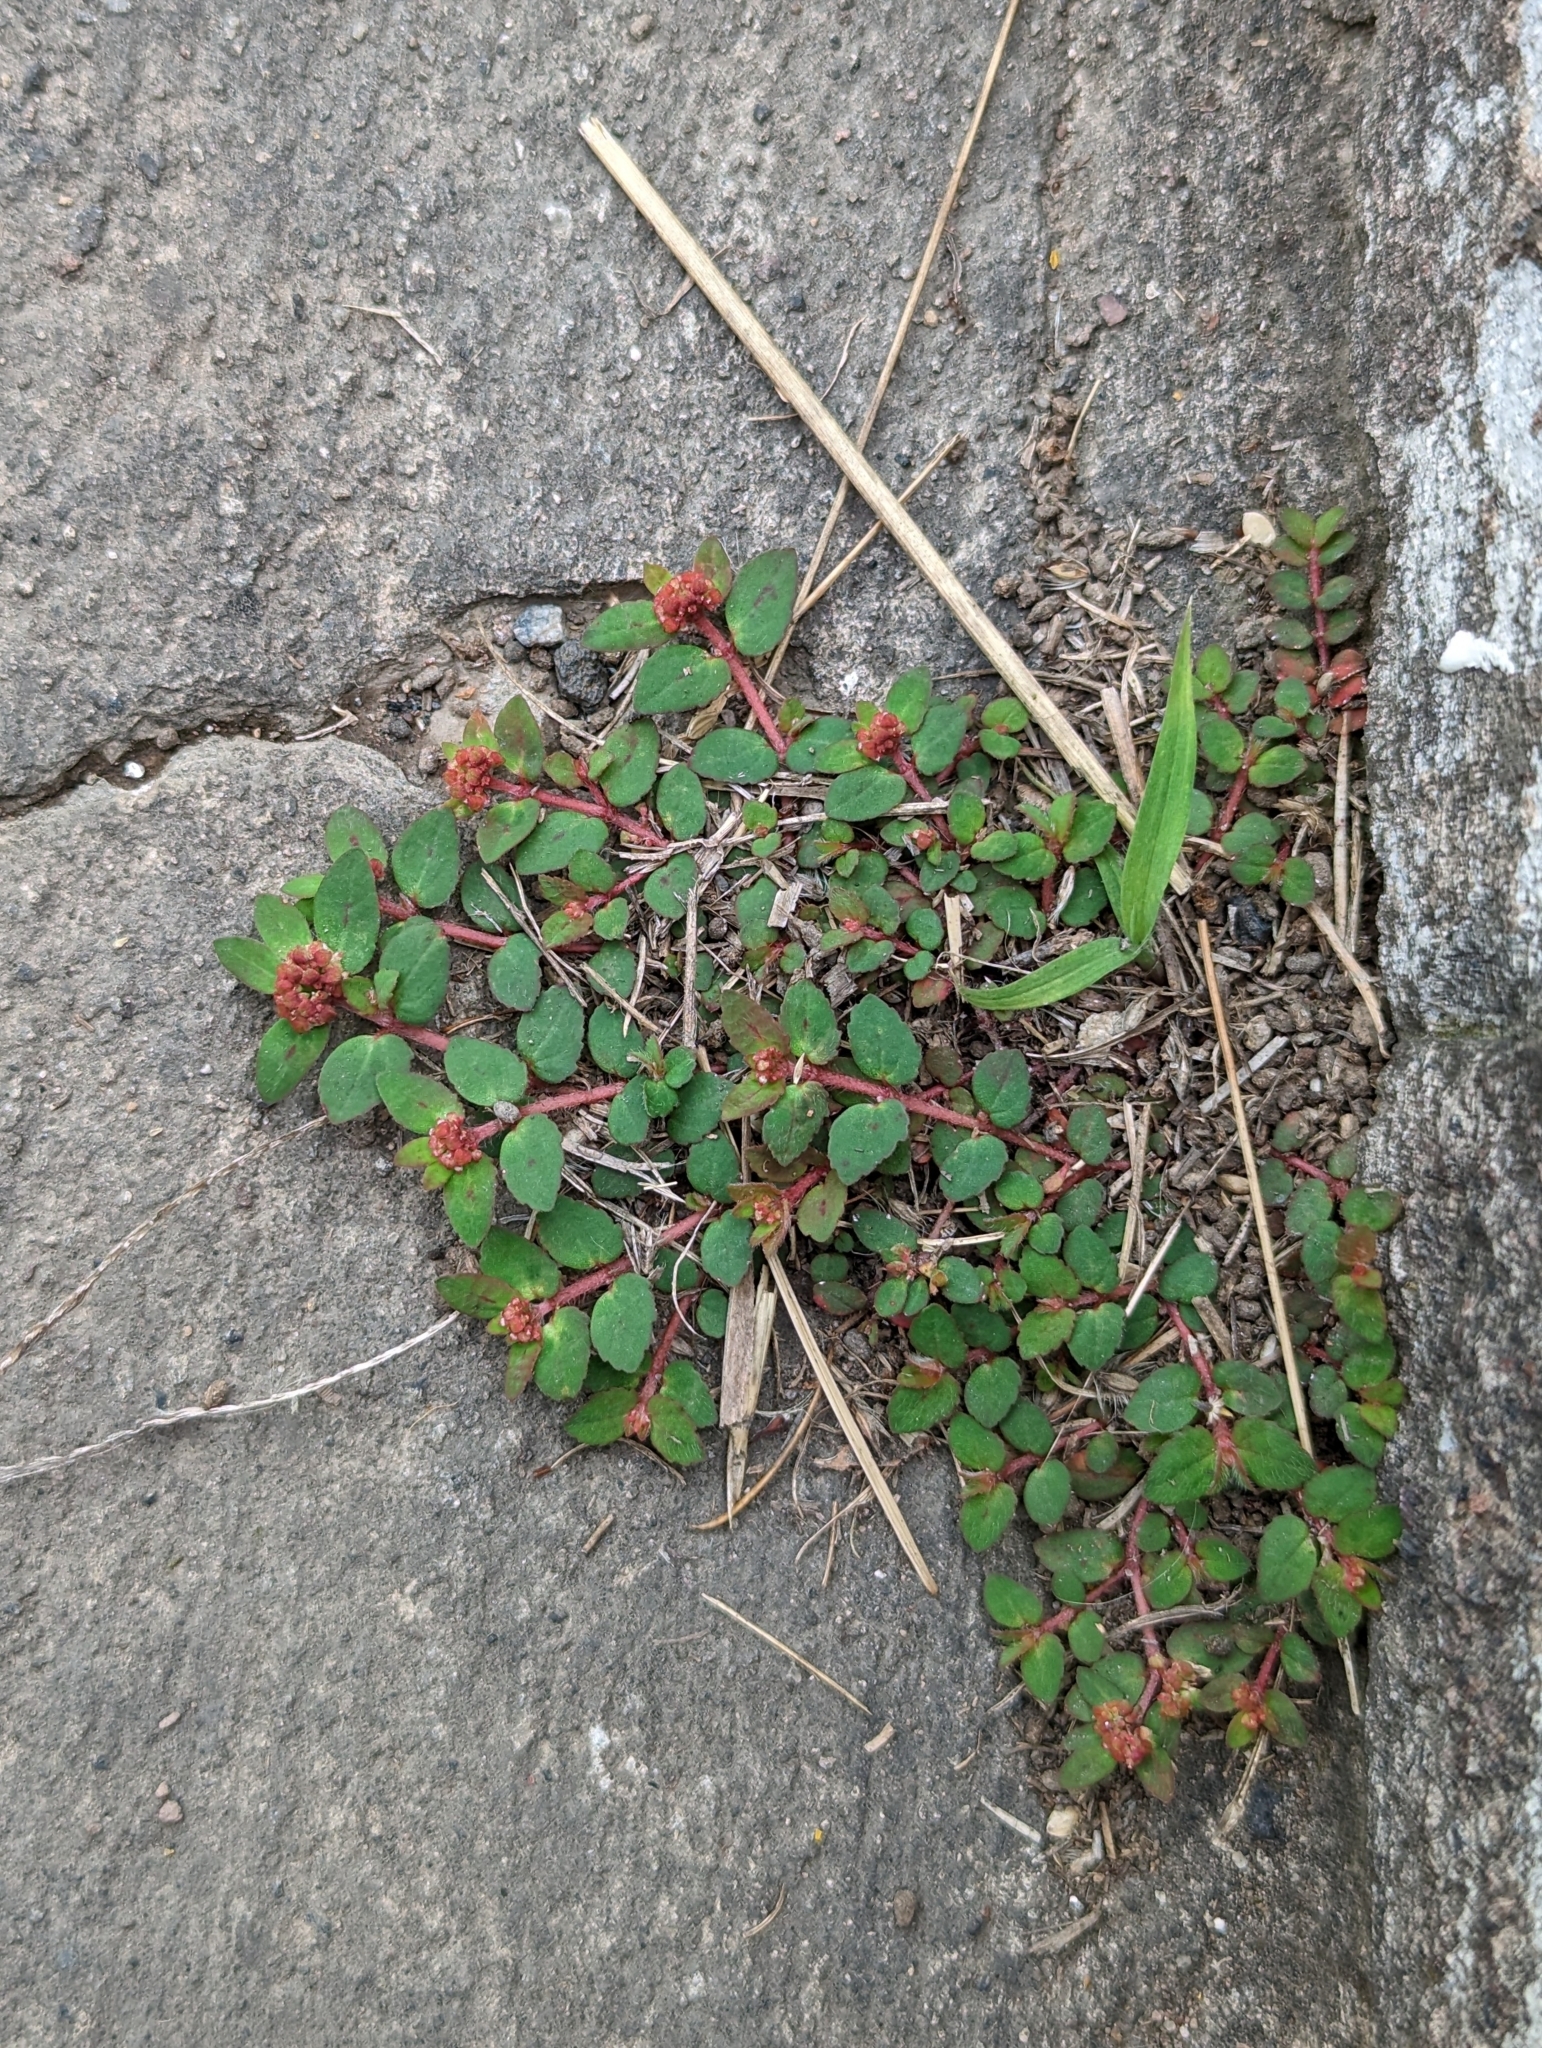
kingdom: Plantae
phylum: Tracheophyta
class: Magnoliopsida
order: Malpighiales
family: Euphorbiaceae
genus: Euphorbia
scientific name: Euphorbia ophthalmica
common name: Florida hammock sandmat
